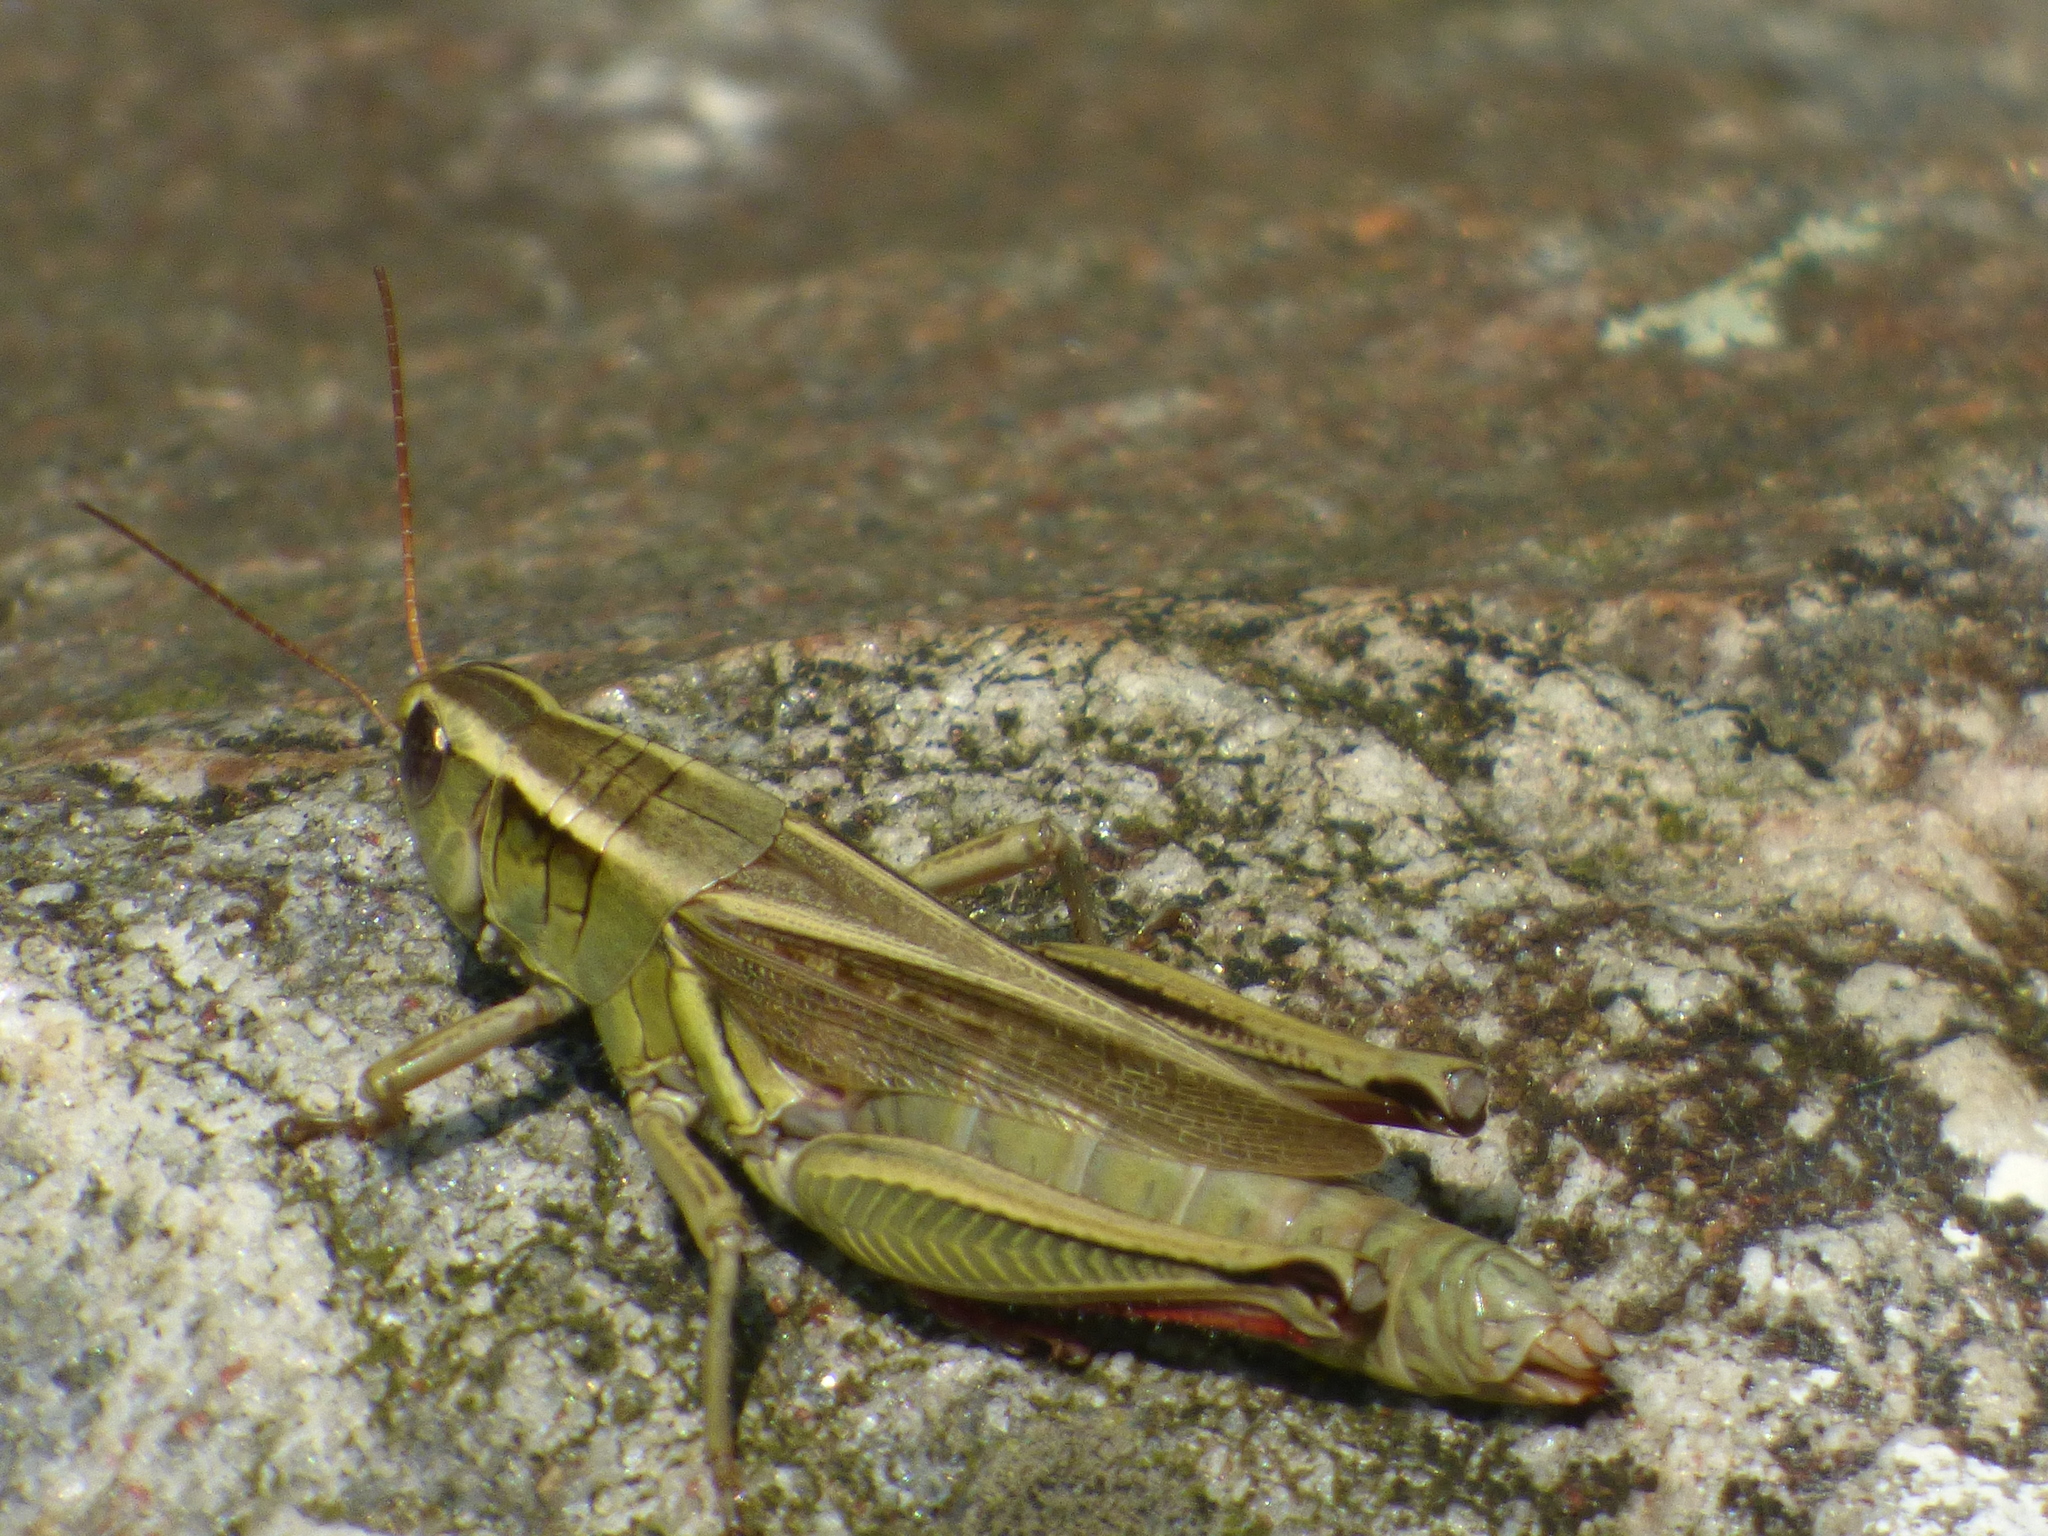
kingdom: Animalia
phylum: Arthropoda
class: Insecta
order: Orthoptera
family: Acrididae
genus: Melanoplus
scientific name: Melanoplus bivittatus
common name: Two-striped grasshopper
